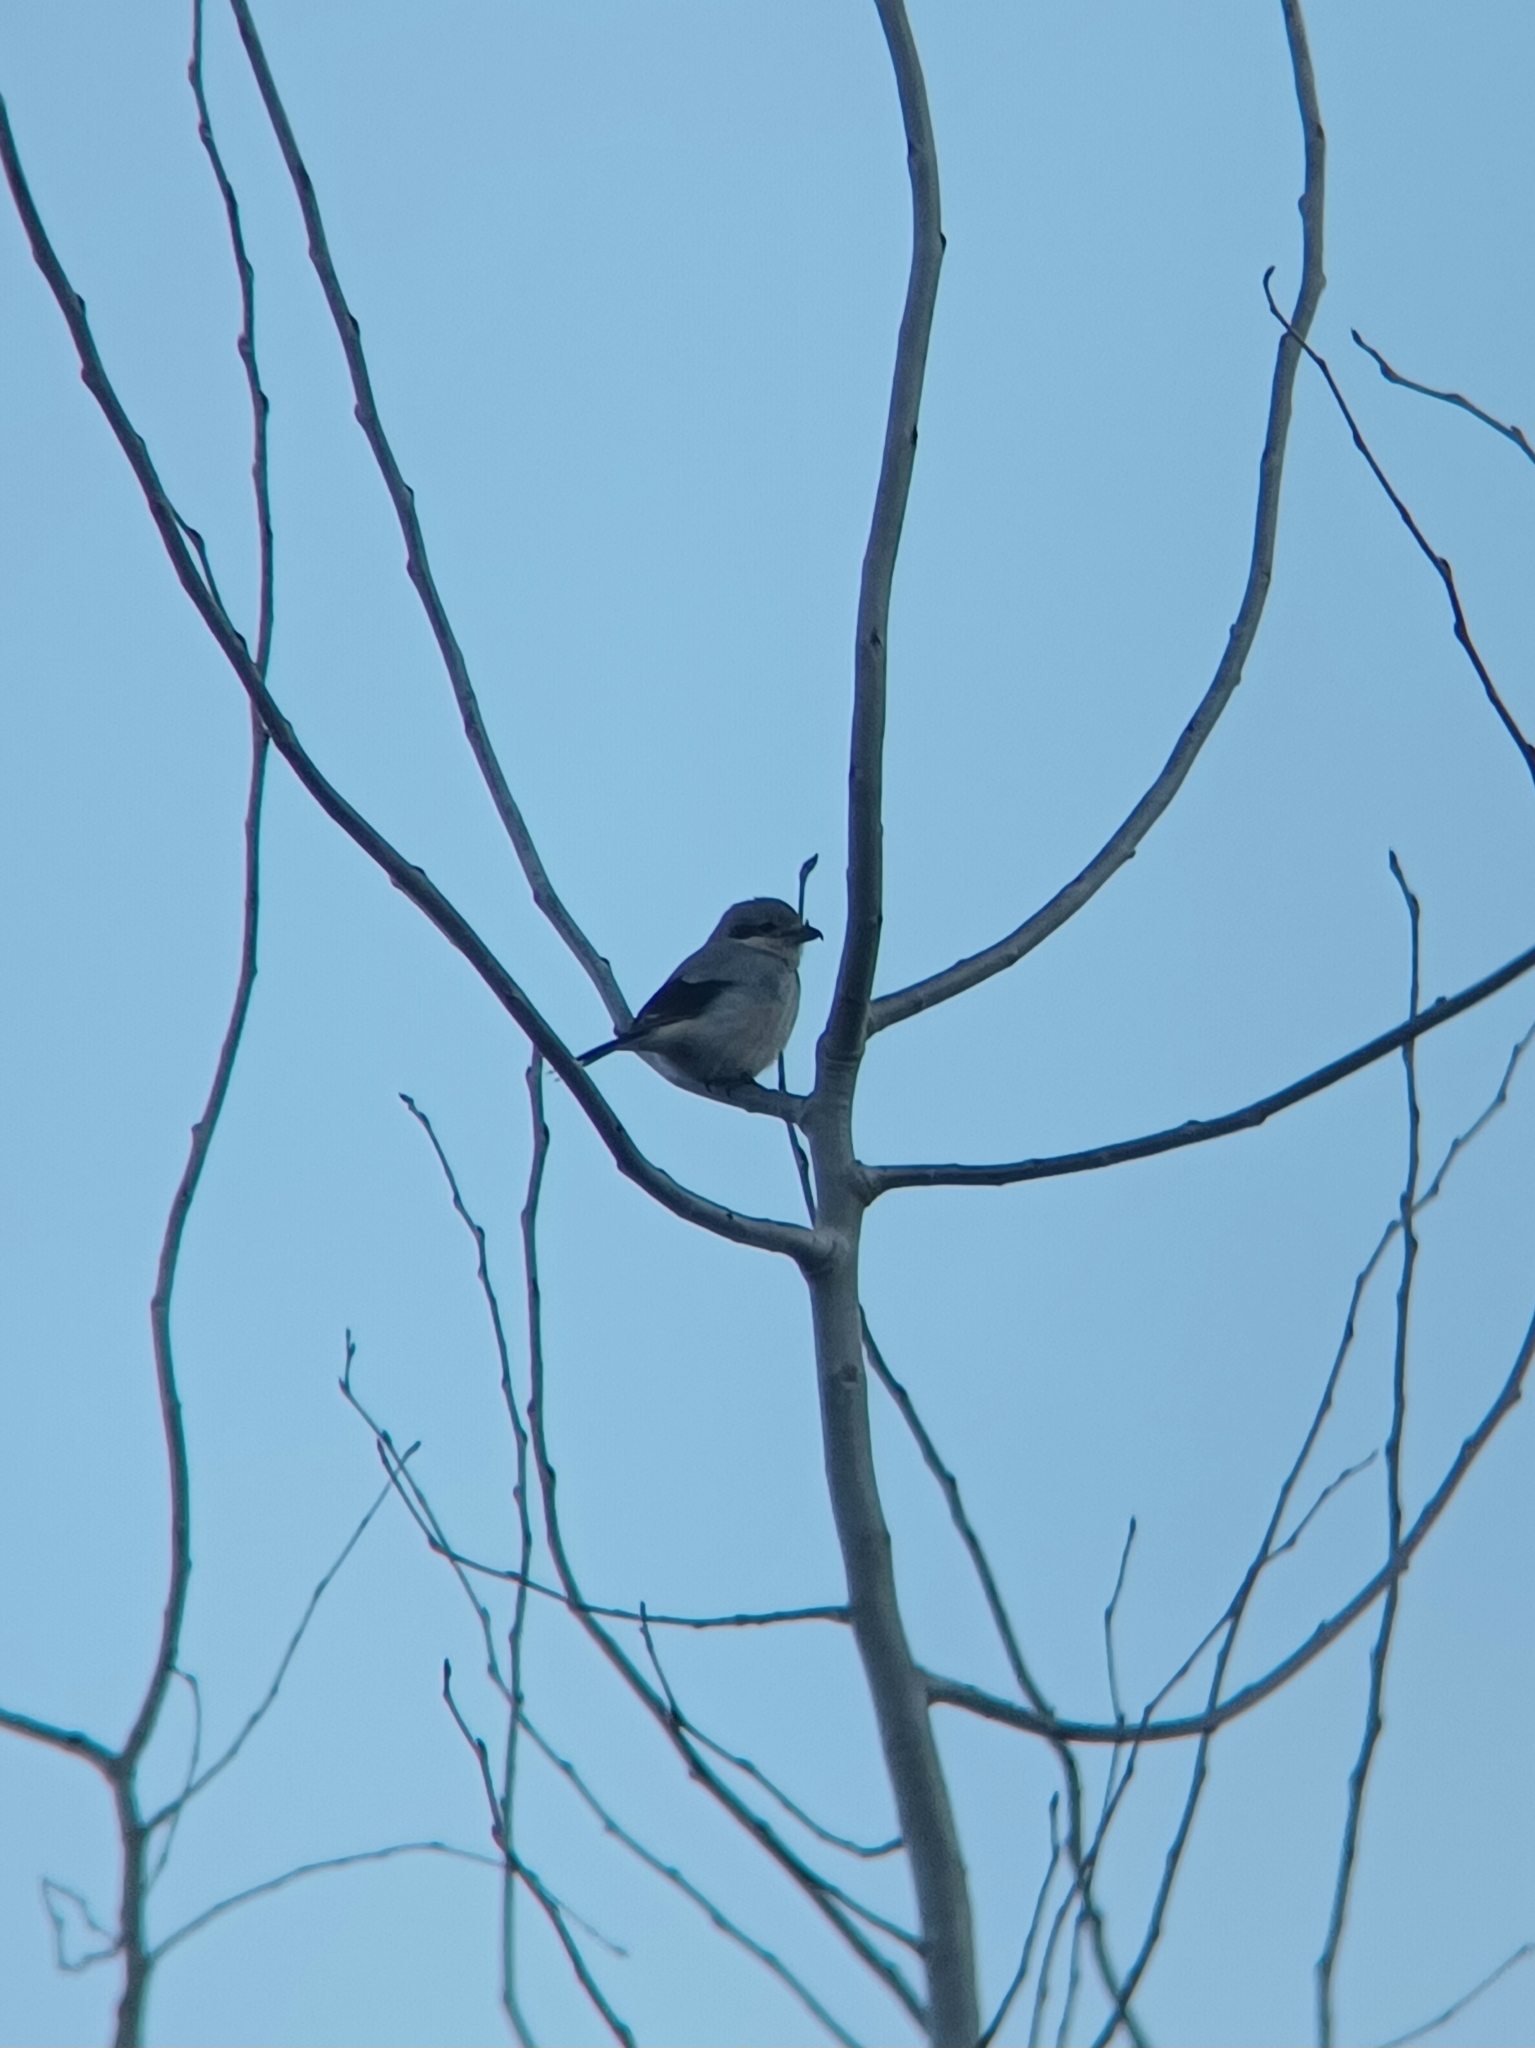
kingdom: Animalia
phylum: Chordata
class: Aves
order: Passeriformes
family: Laniidae
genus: Lanius
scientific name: Lanius borealis
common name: Northern shrike
